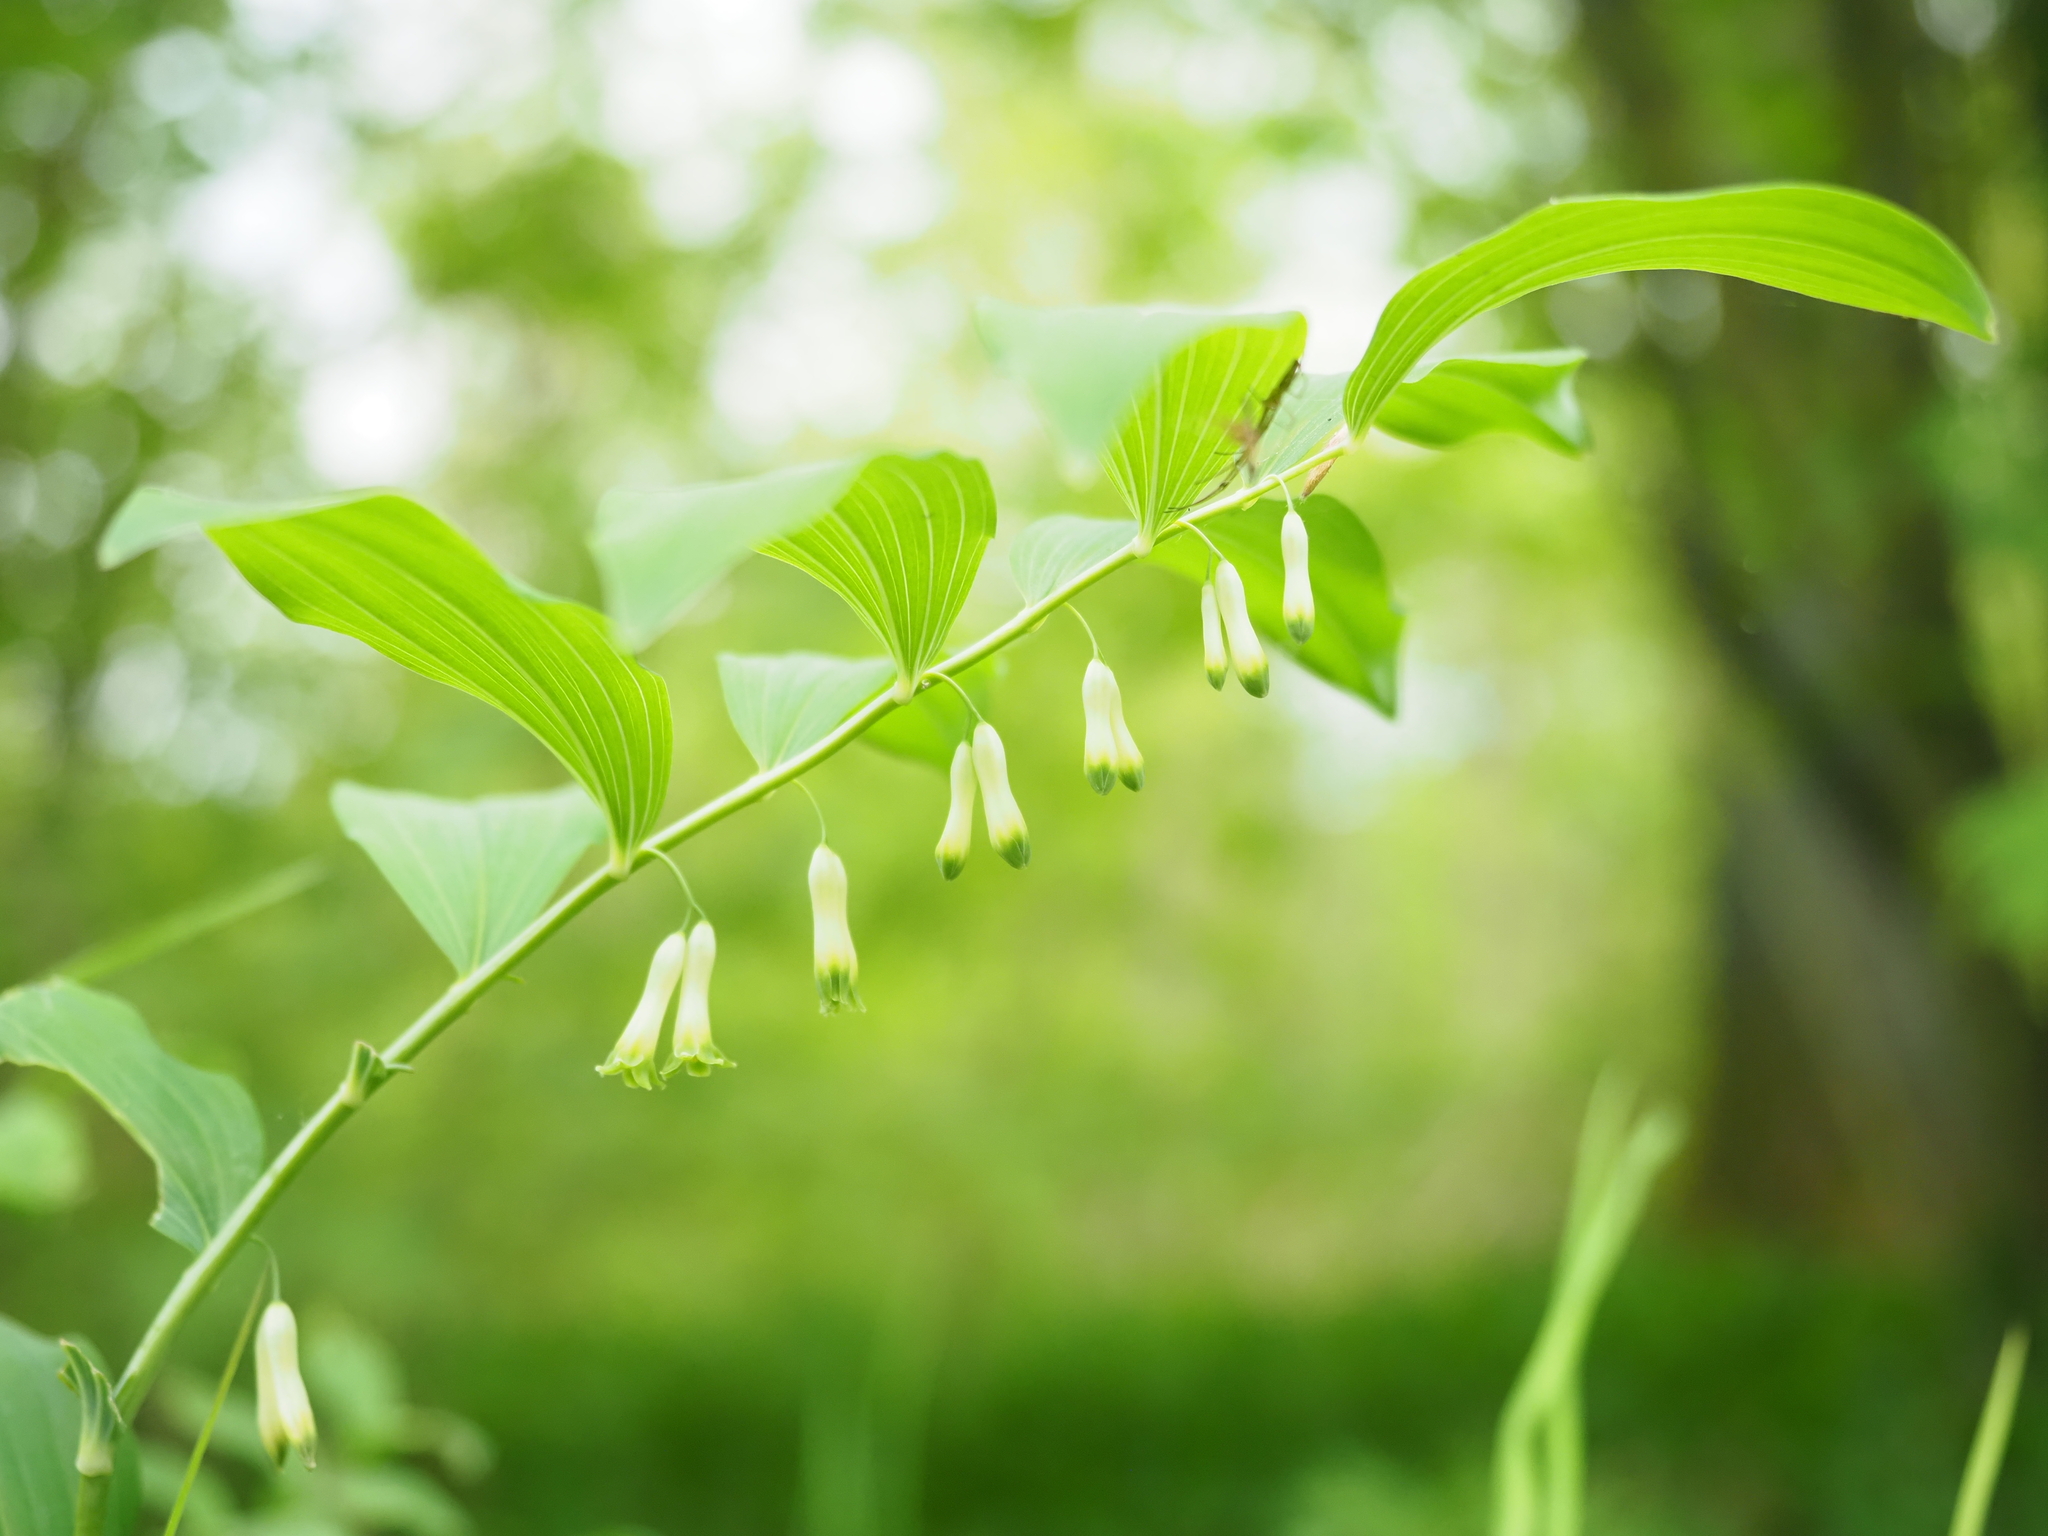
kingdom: Plantae
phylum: Tracheophyta
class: Liliopsida
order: Asparagales
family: Asparagaceae
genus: Polygonatum
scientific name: Polygonatum multiflorum
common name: Solomon's-seal
